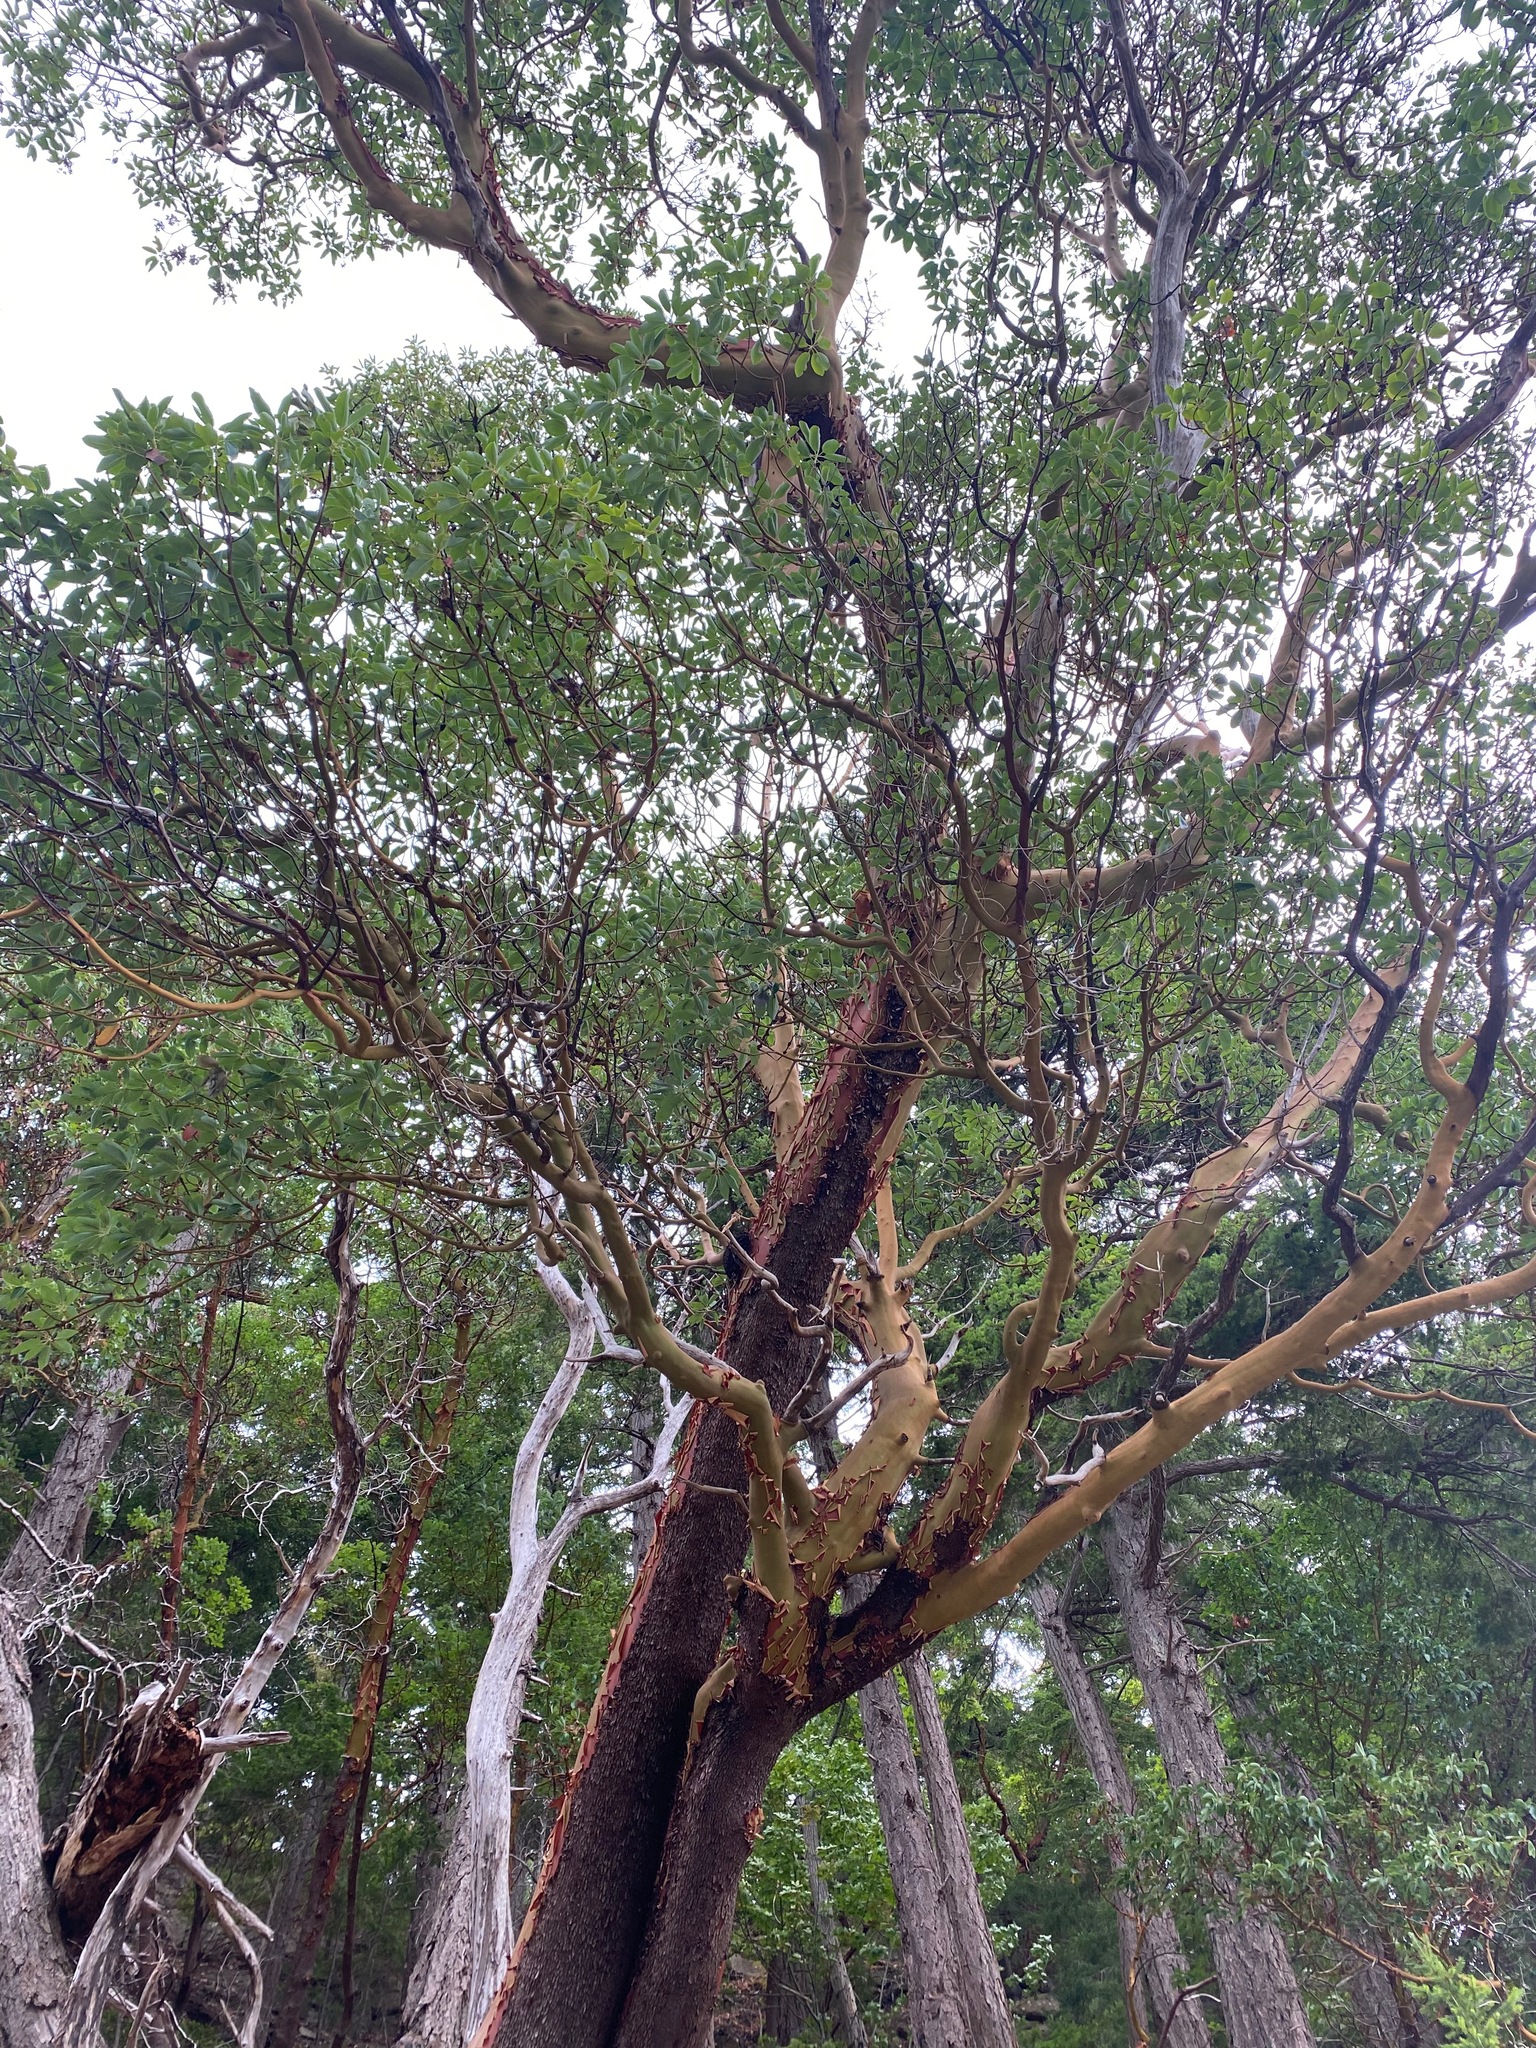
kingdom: Plantae
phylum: Tracheophyta
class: Magnoliopsida
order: Ericales
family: Ericaceae
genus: Arbutus
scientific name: Arbutus menziesii
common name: Pacific madrone
